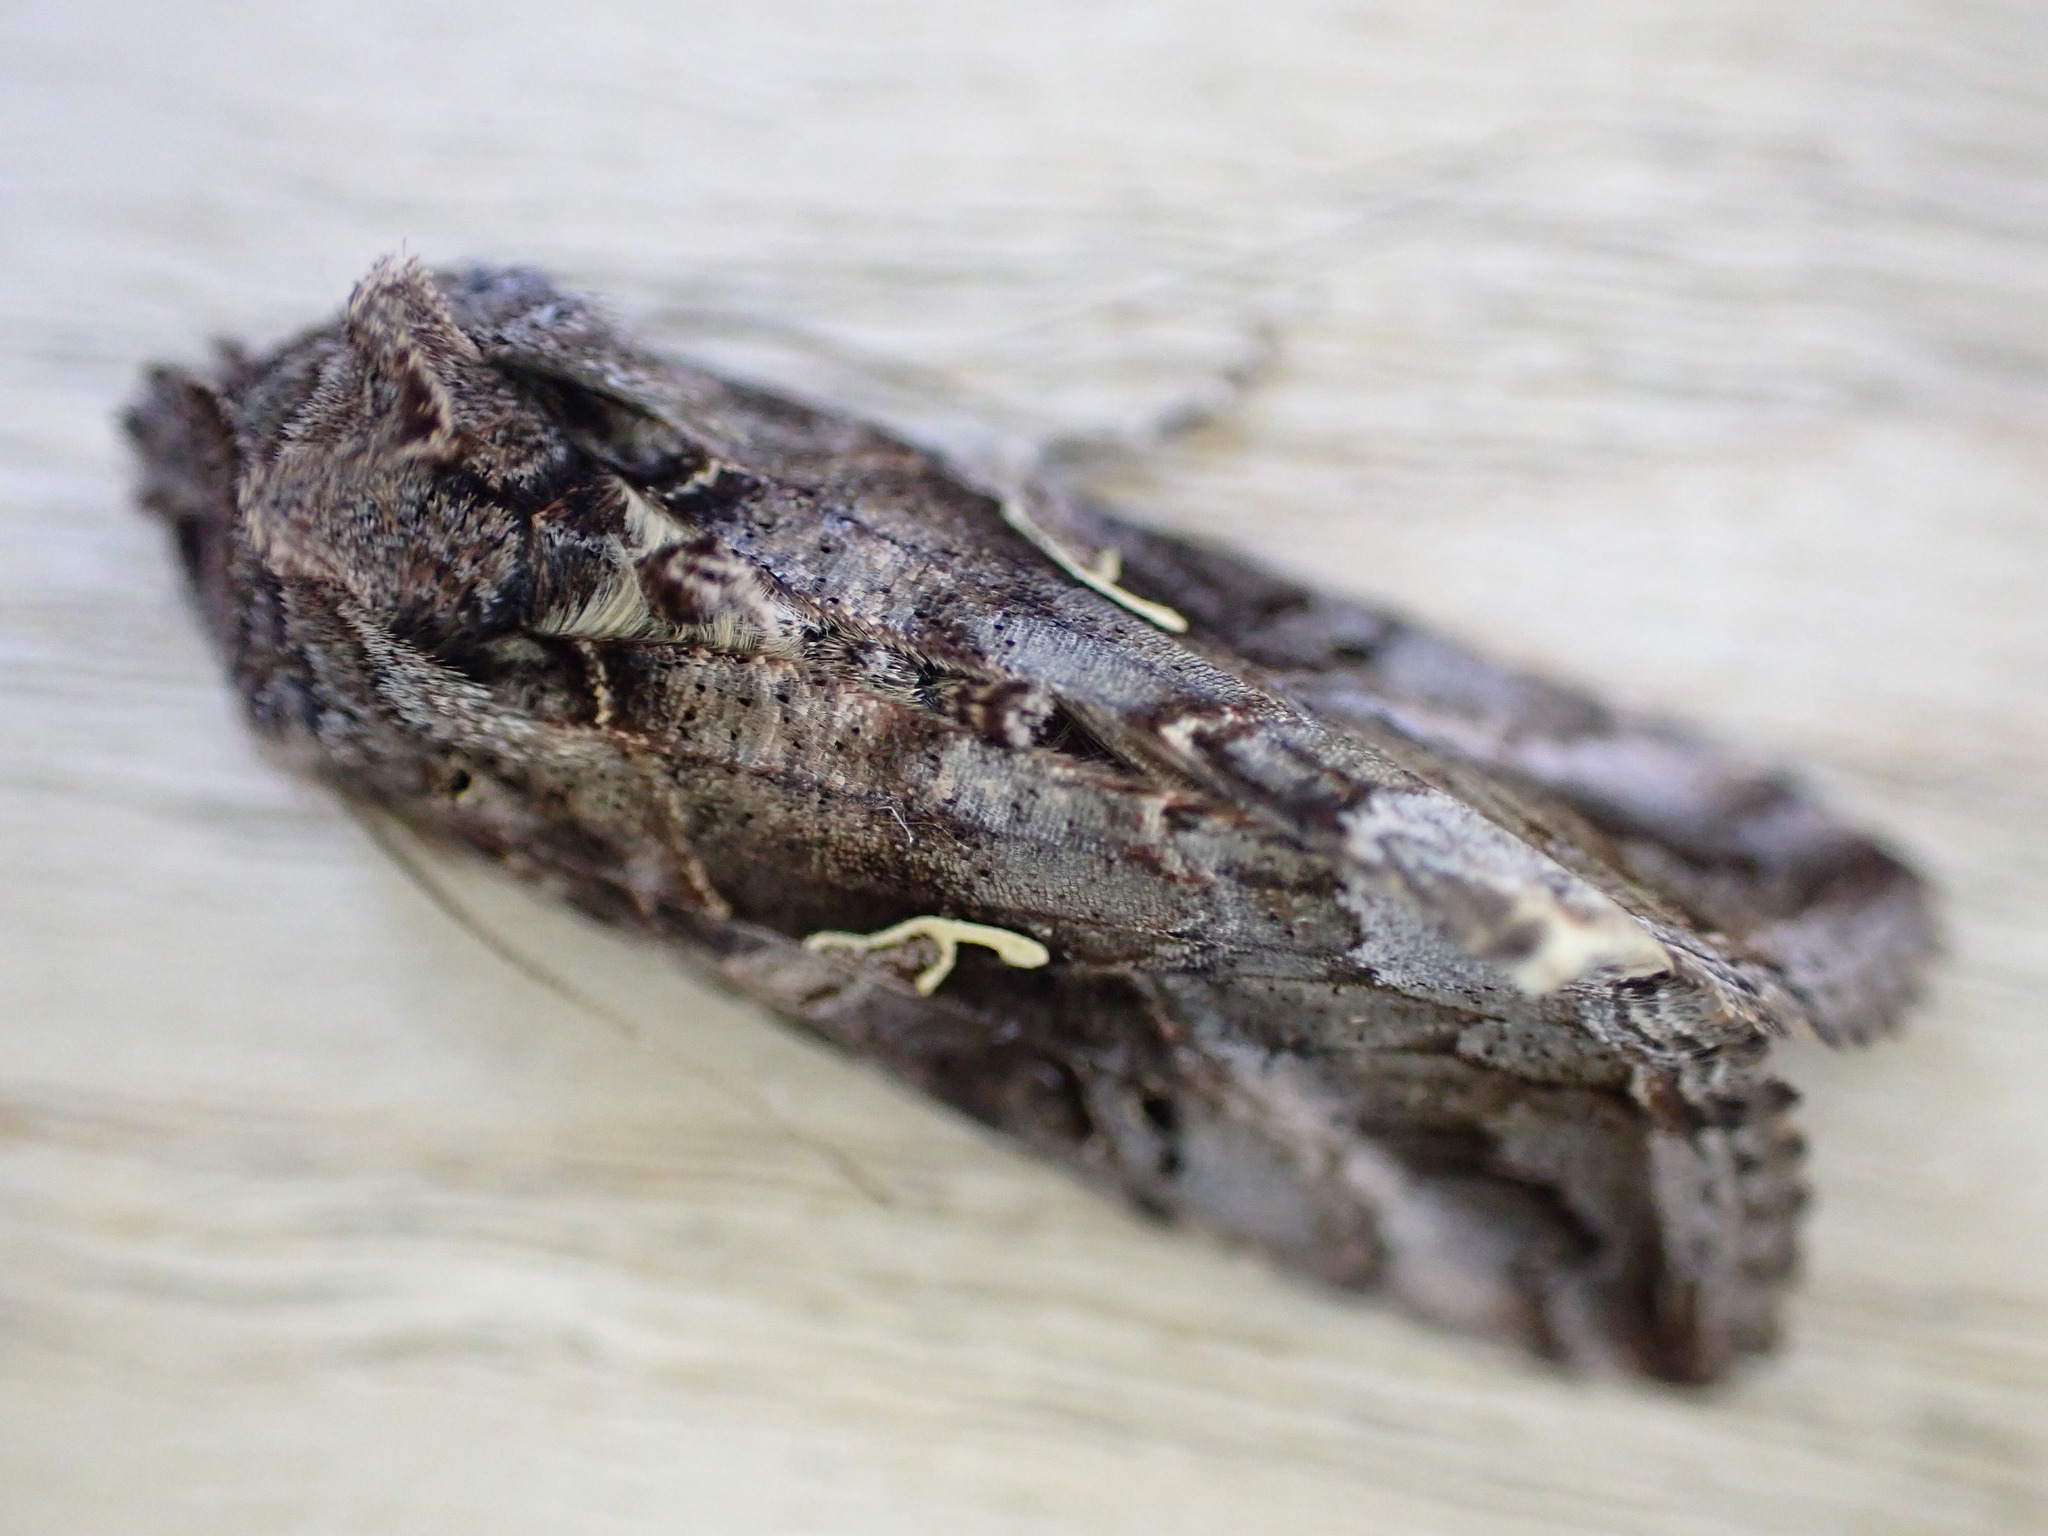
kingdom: Animalia
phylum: Arthropoda
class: Insecta
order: Lepidoptera
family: Noctuidae
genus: Autographa
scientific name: Autographa gamma
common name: Silver y
